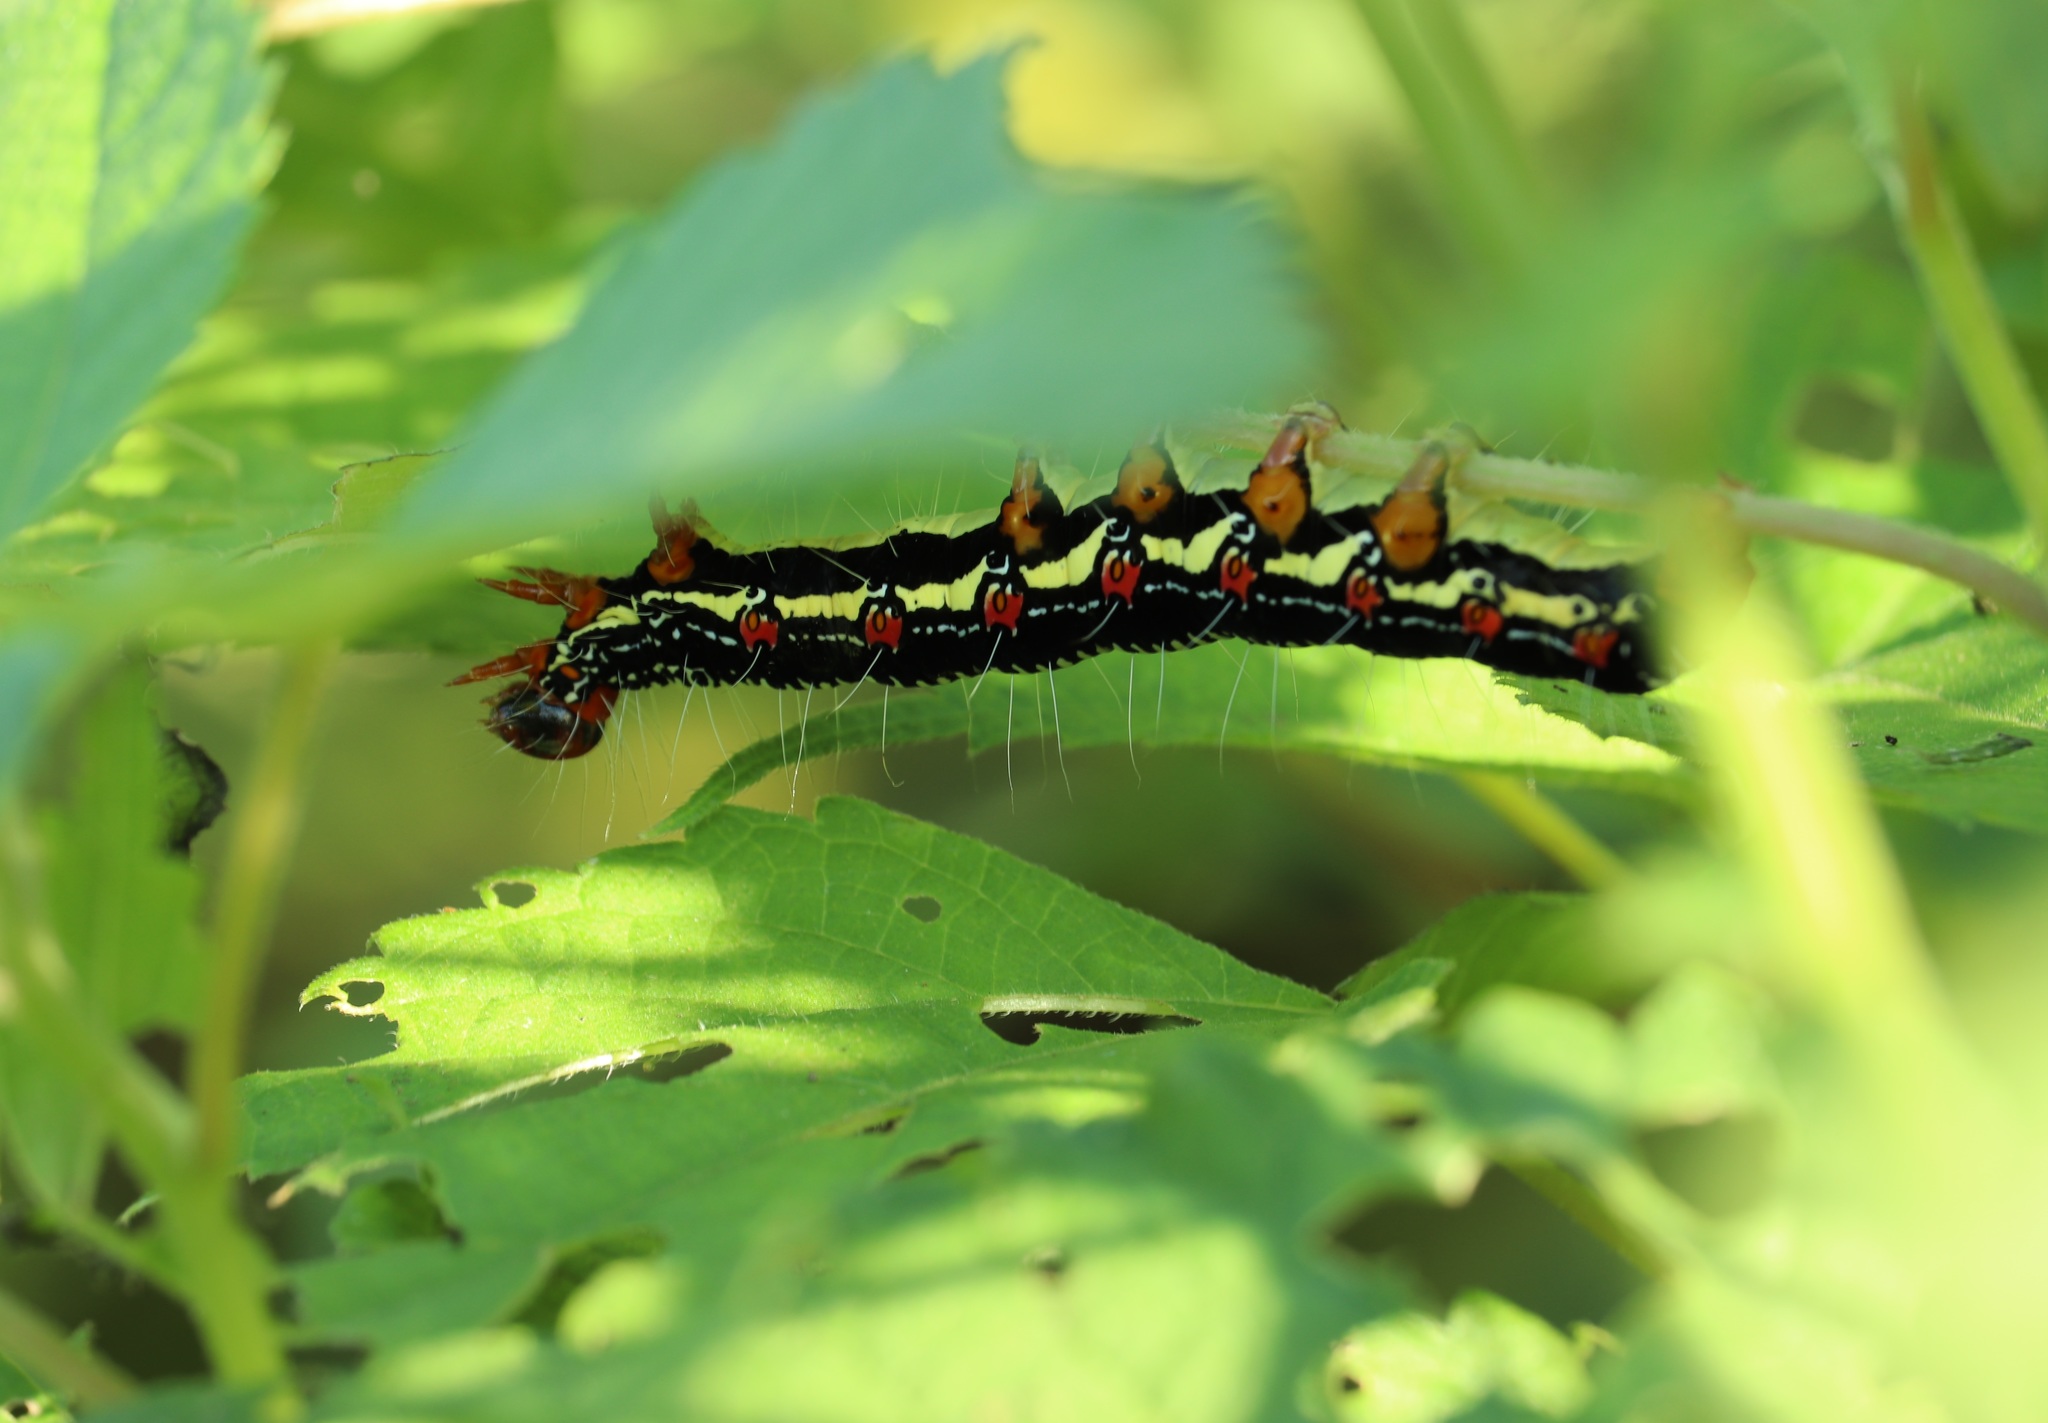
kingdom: Animalia
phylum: Arthropoda
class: Insecta
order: Lepidoptera
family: Erebidae
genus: Arcte
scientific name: Arcte coerula
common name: Ramie moth
